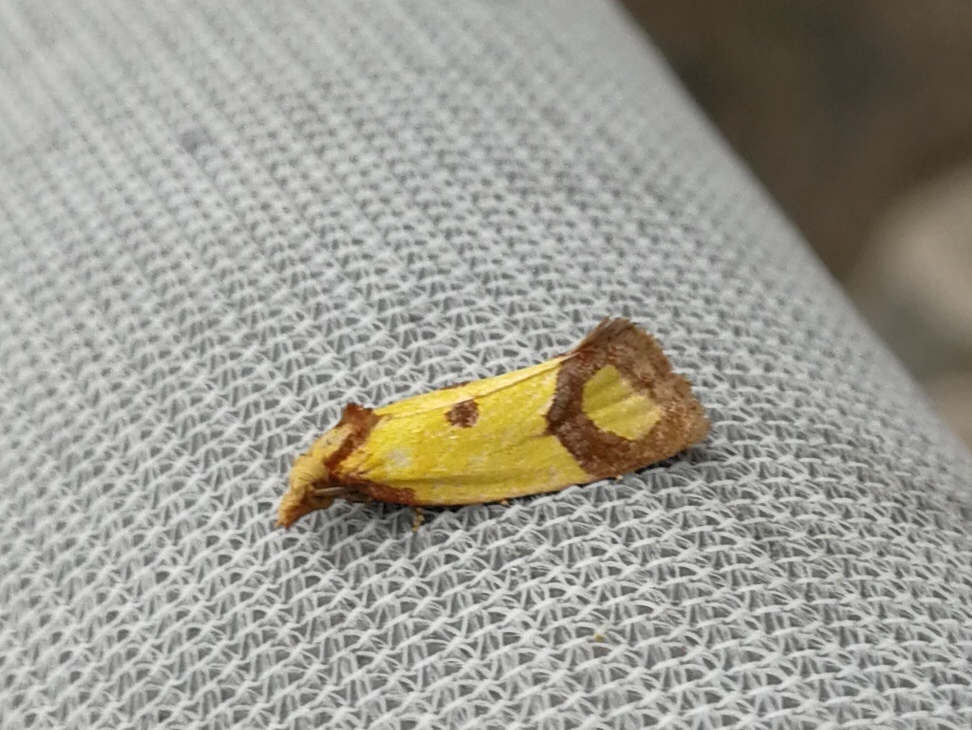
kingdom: Animalia
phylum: Arthropoda
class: Insecta
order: Lepidoptera
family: Tortricidae
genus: Agapeta
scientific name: Agapeta zoegana
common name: Sulfur knapweed root moth
